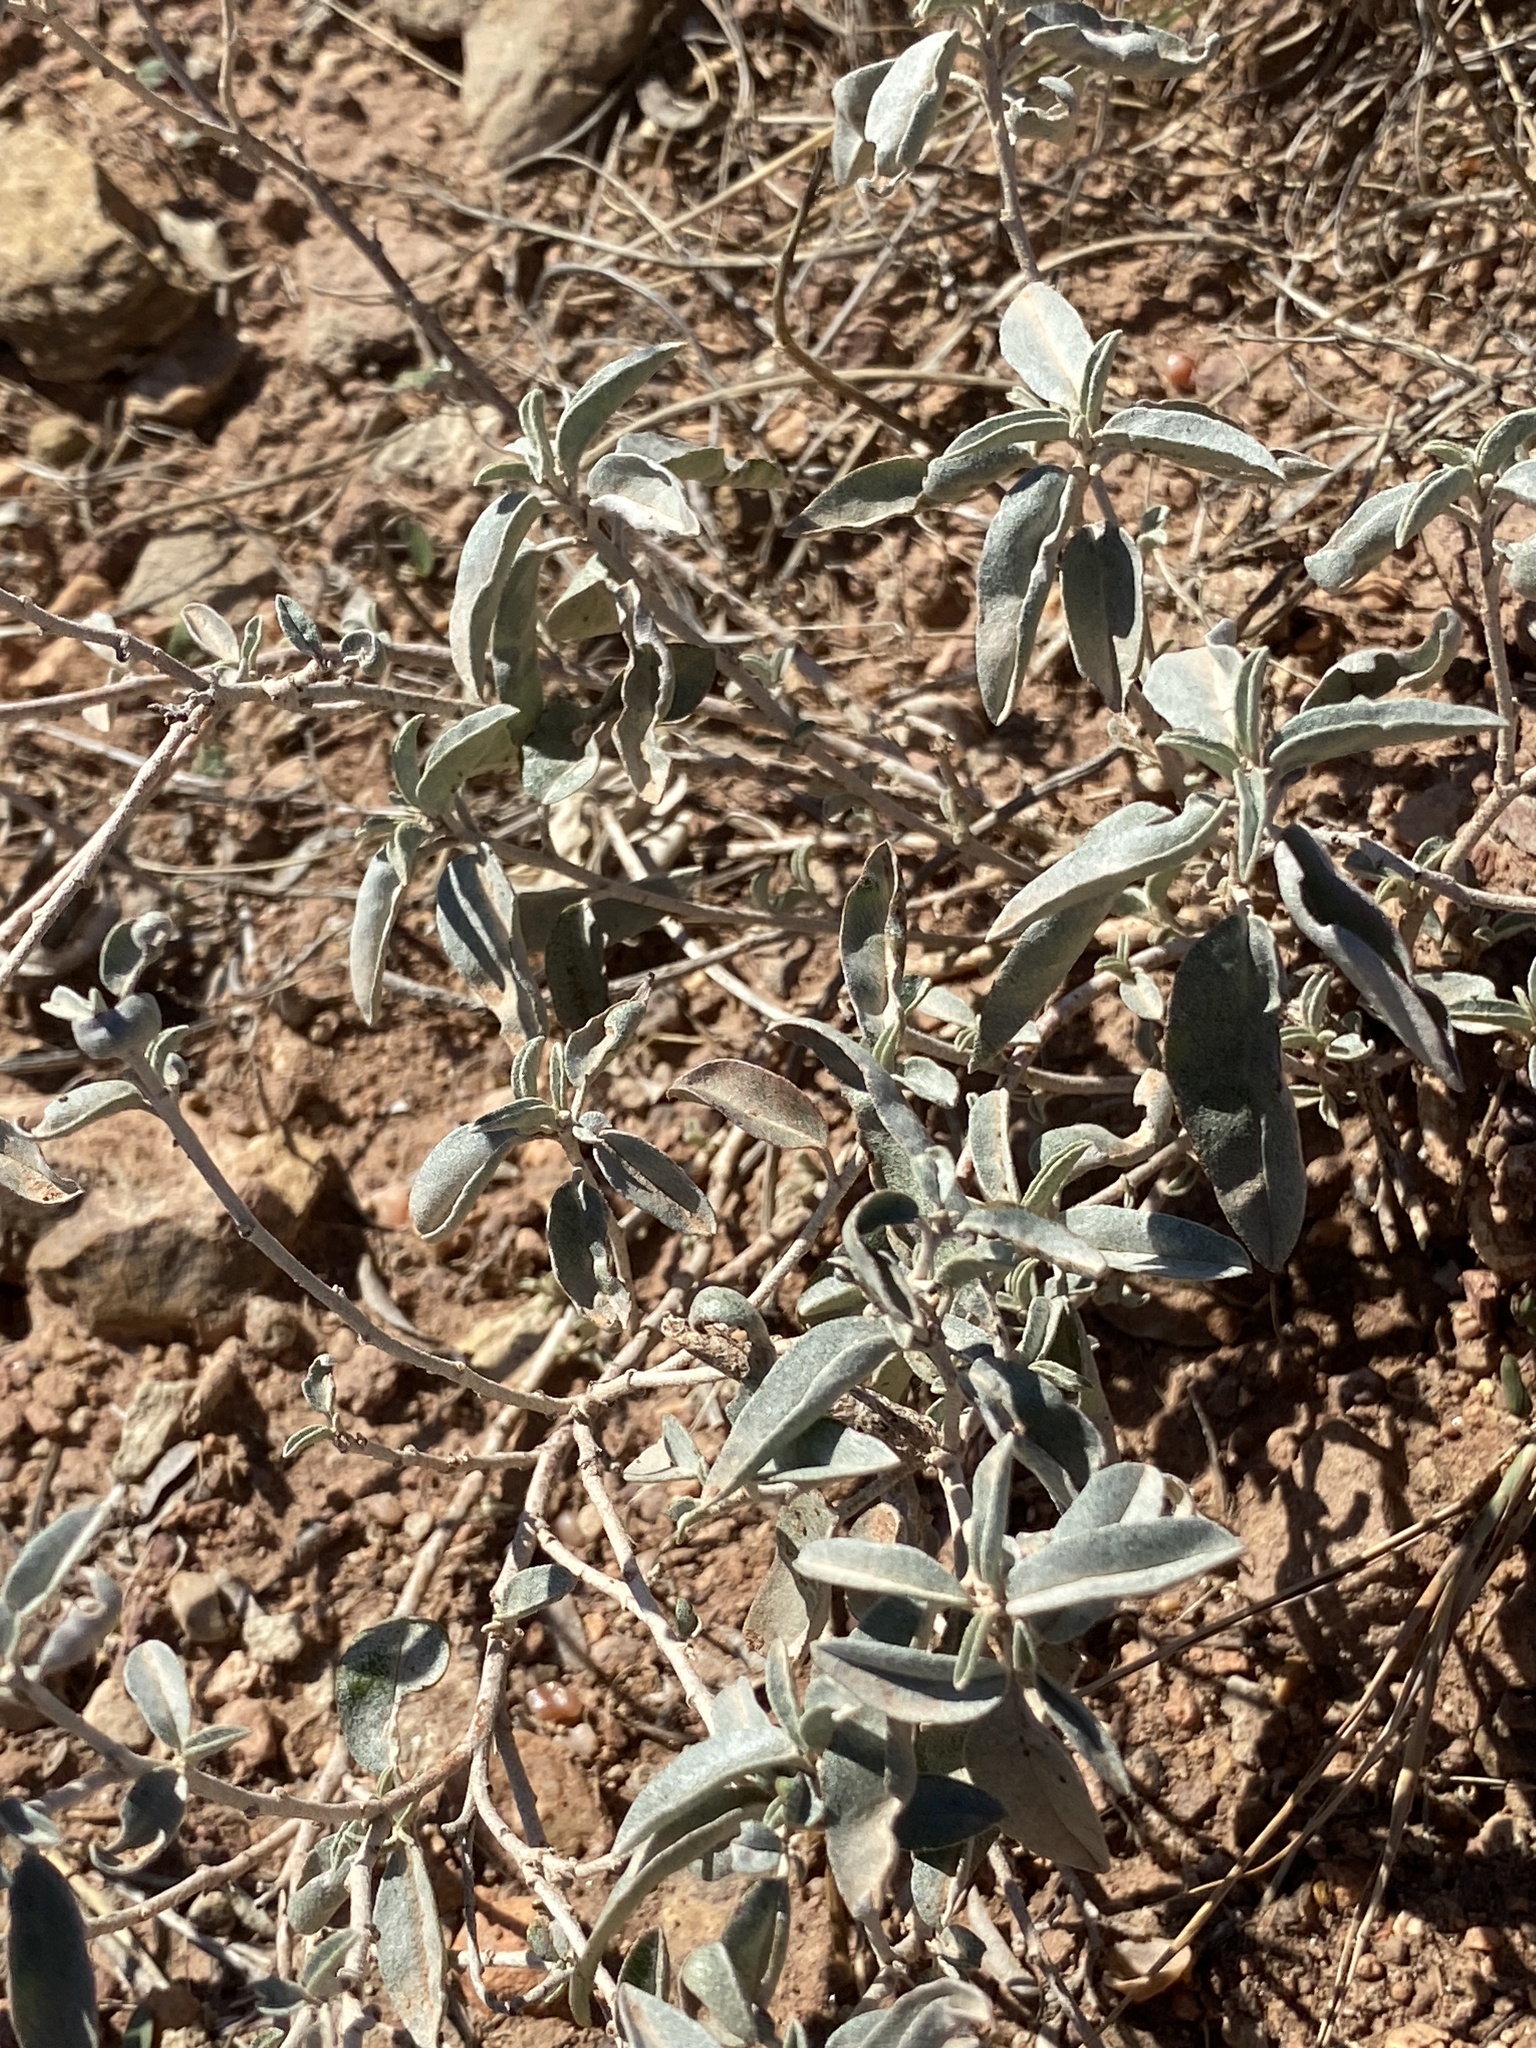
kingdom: Plantae
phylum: Tracheophyta
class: Magnoliopsida
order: Malpighiales
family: Euphorbiaceae
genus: Croton
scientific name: Croton dioicus
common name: Grassland croton
